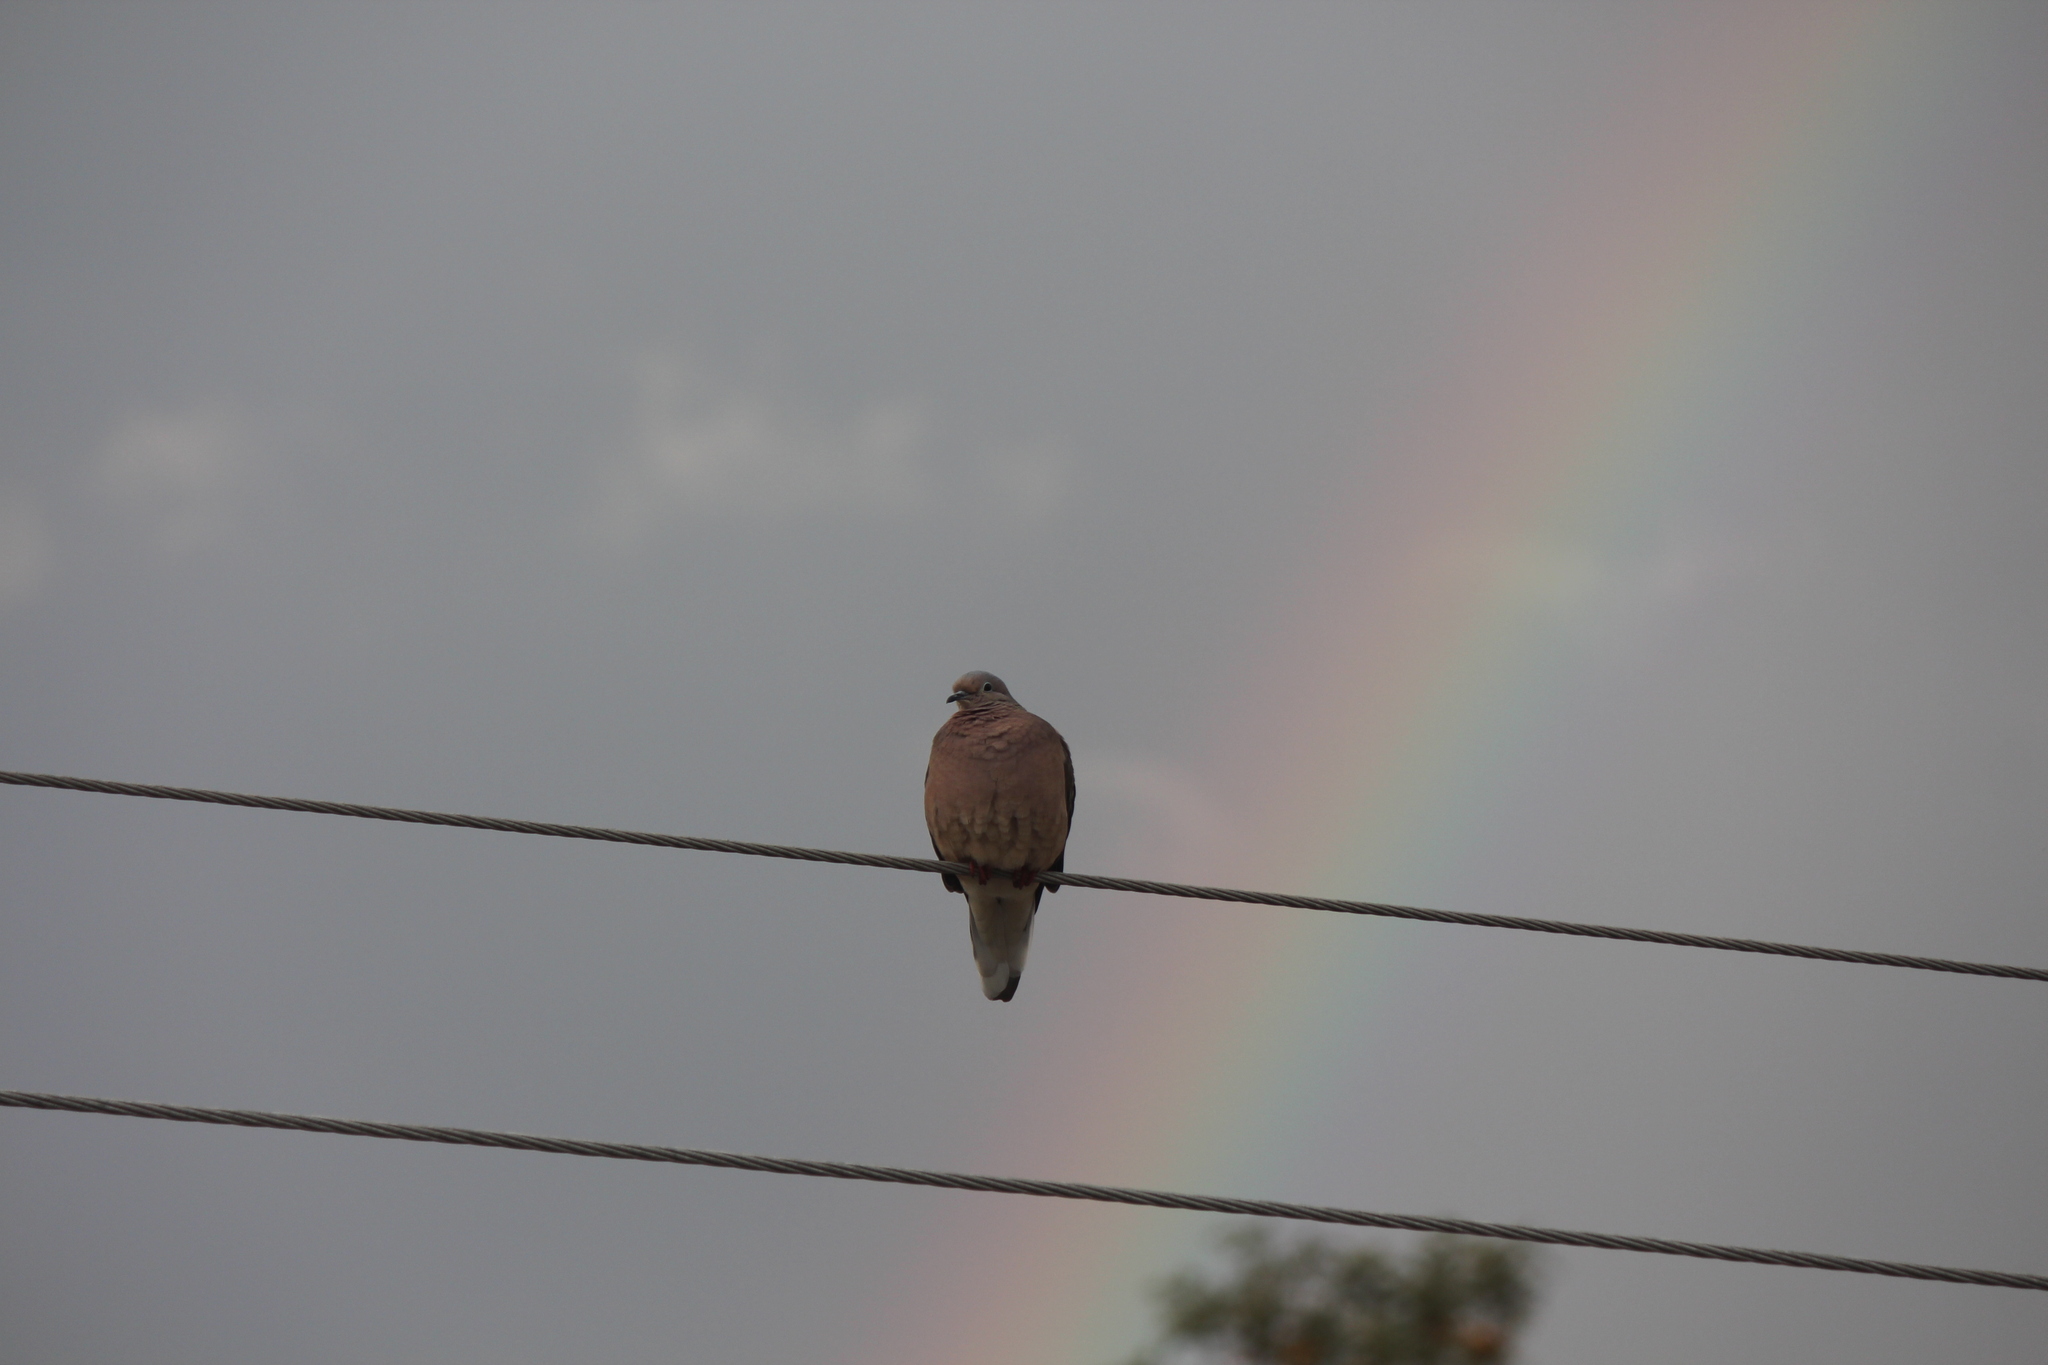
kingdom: Animalia
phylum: Chordata
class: Aves
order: Columbiformes
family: Columbidae
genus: Zenaida
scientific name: Zenaida auriculata
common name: Eared dove
